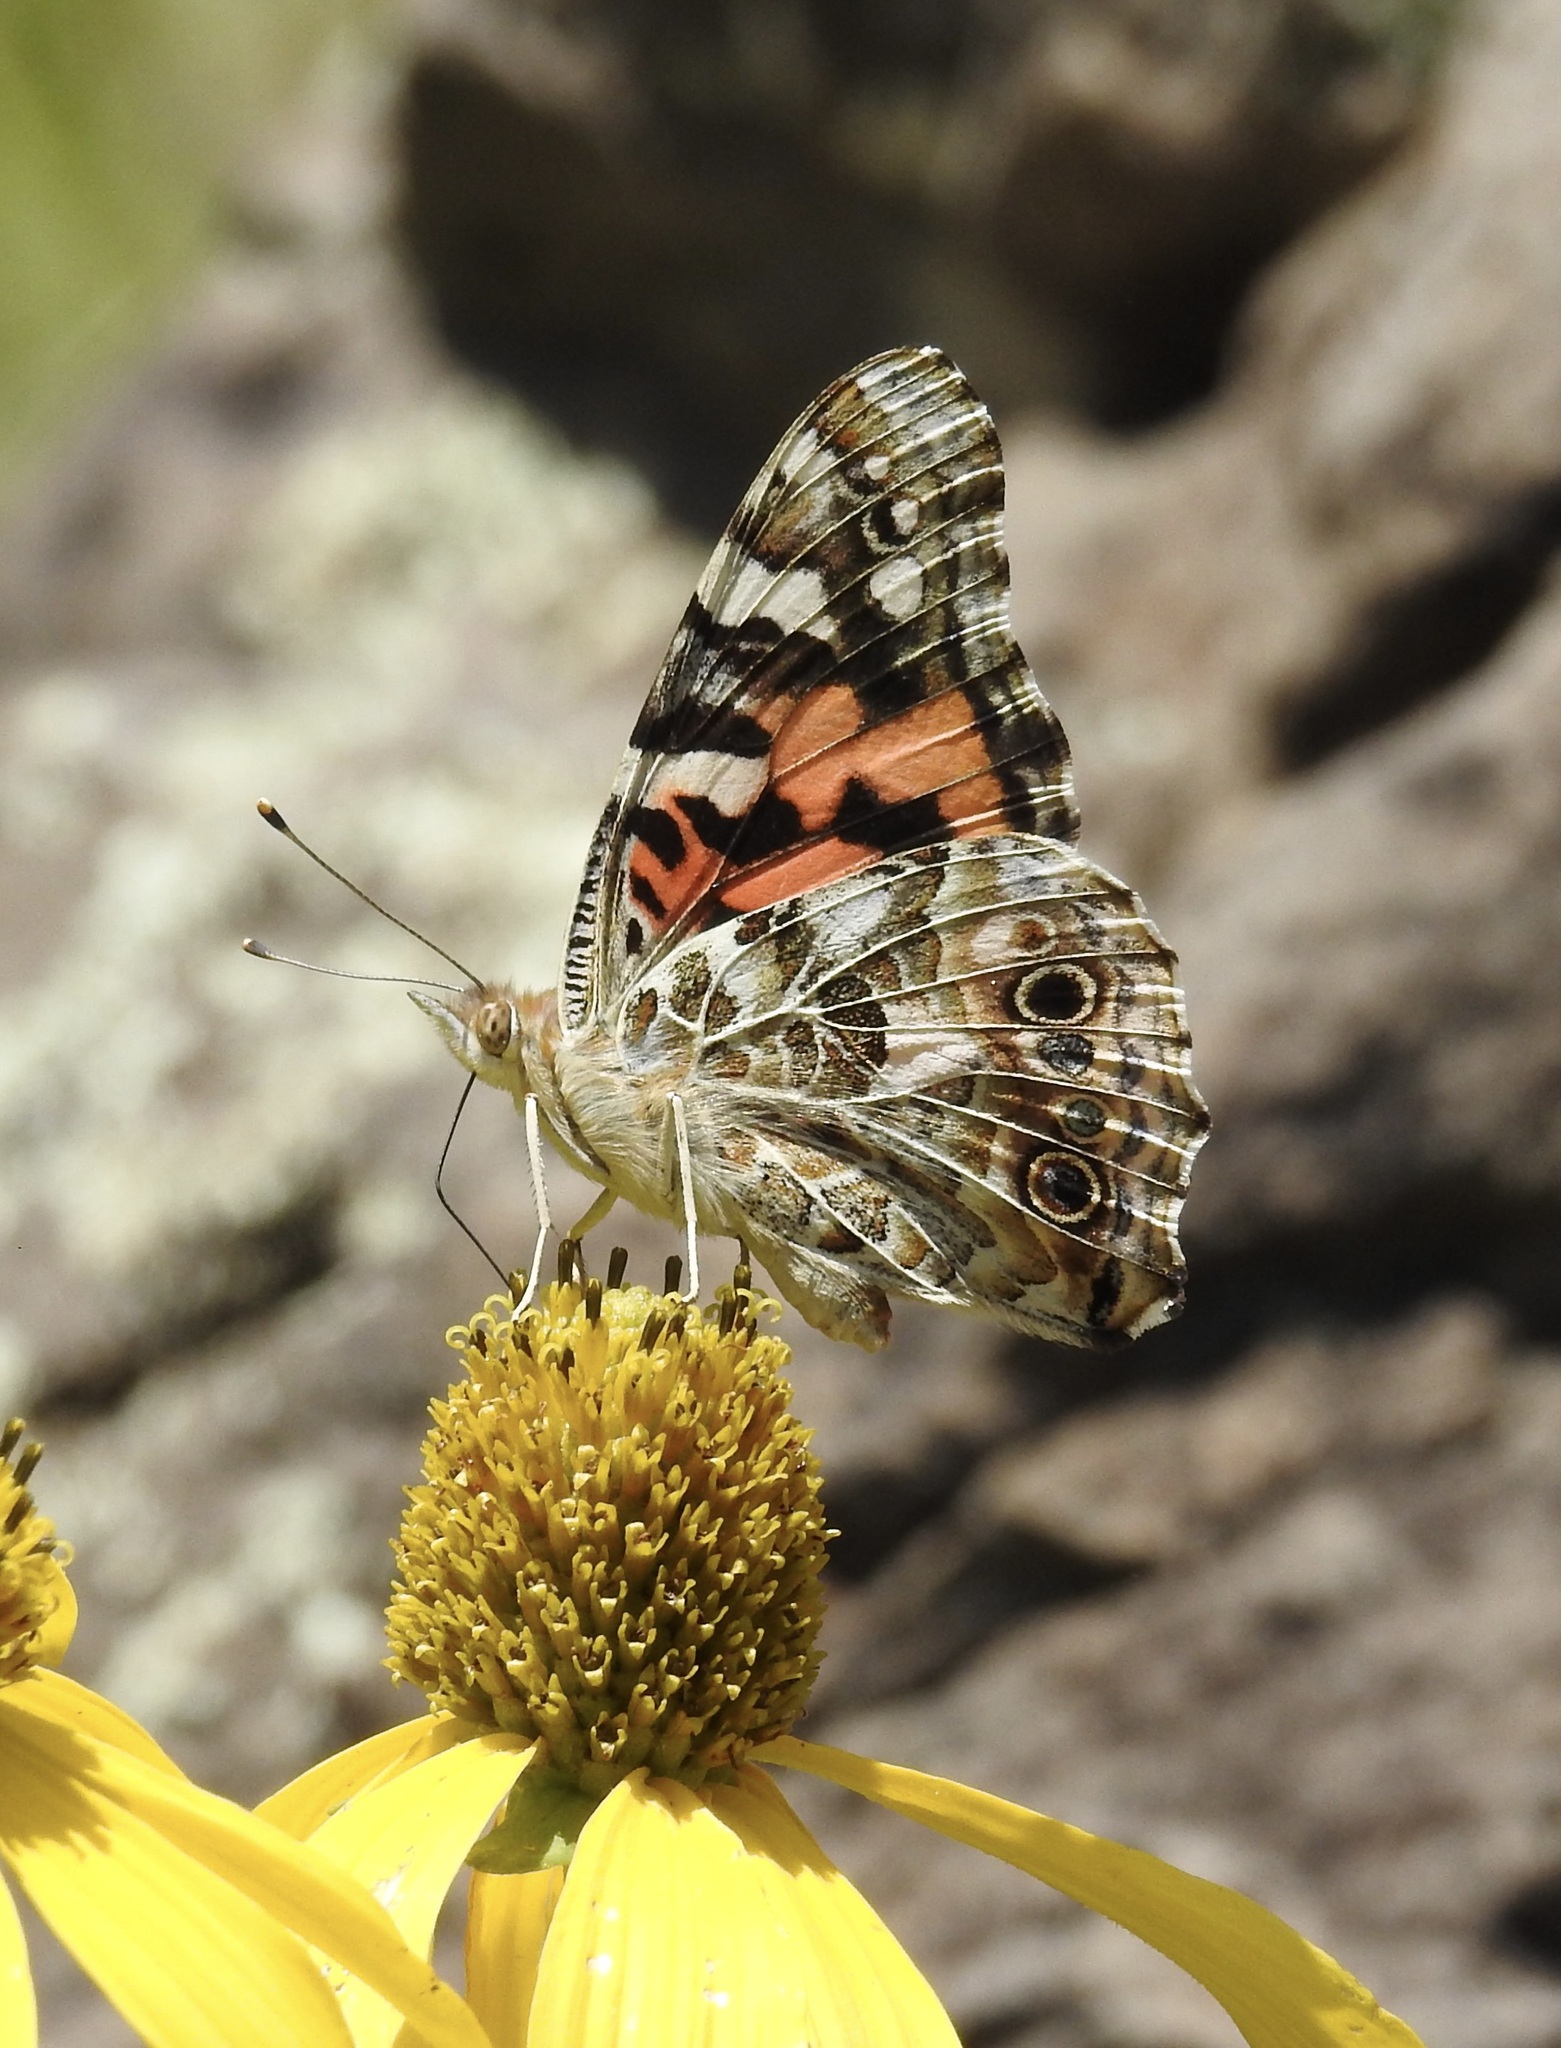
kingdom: Animalia
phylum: Arthropoda
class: Insecta
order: Lepidoptera
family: Nymphalidae
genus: Vanessa
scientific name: Vanessa cardui
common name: Painted lady
